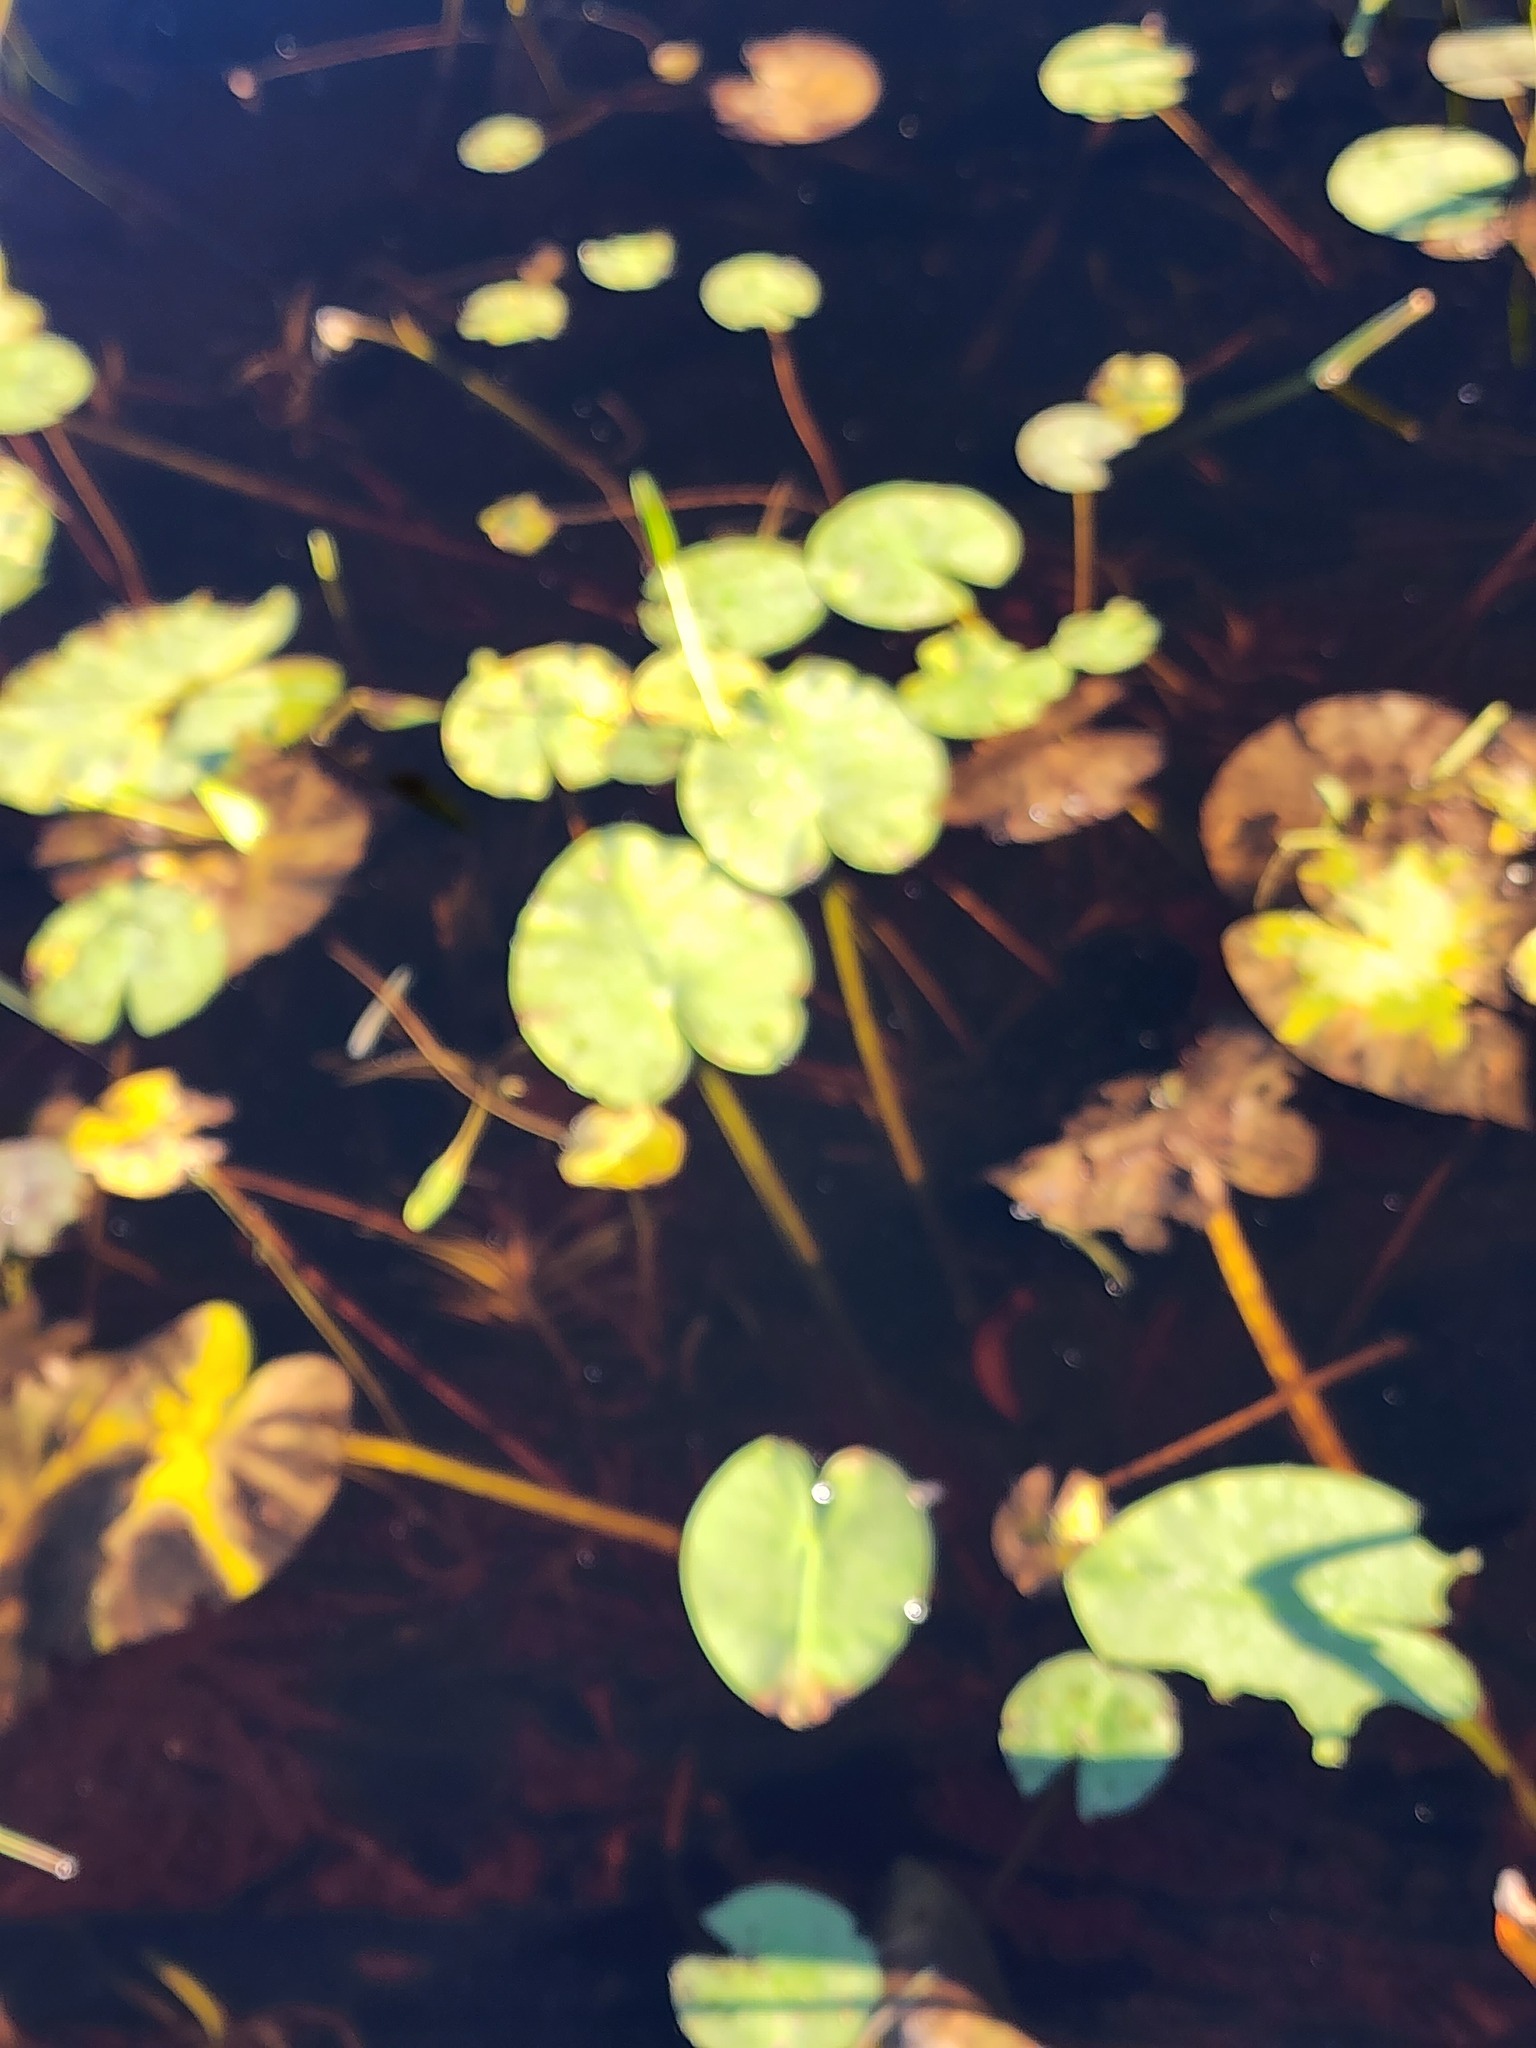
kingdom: Plantae
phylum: Tracheophyta
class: Magnoliopsida
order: Nymphaeales
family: Nymphaeaceae
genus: Nuphar
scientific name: Nuphar variegata
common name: Beaver-root
